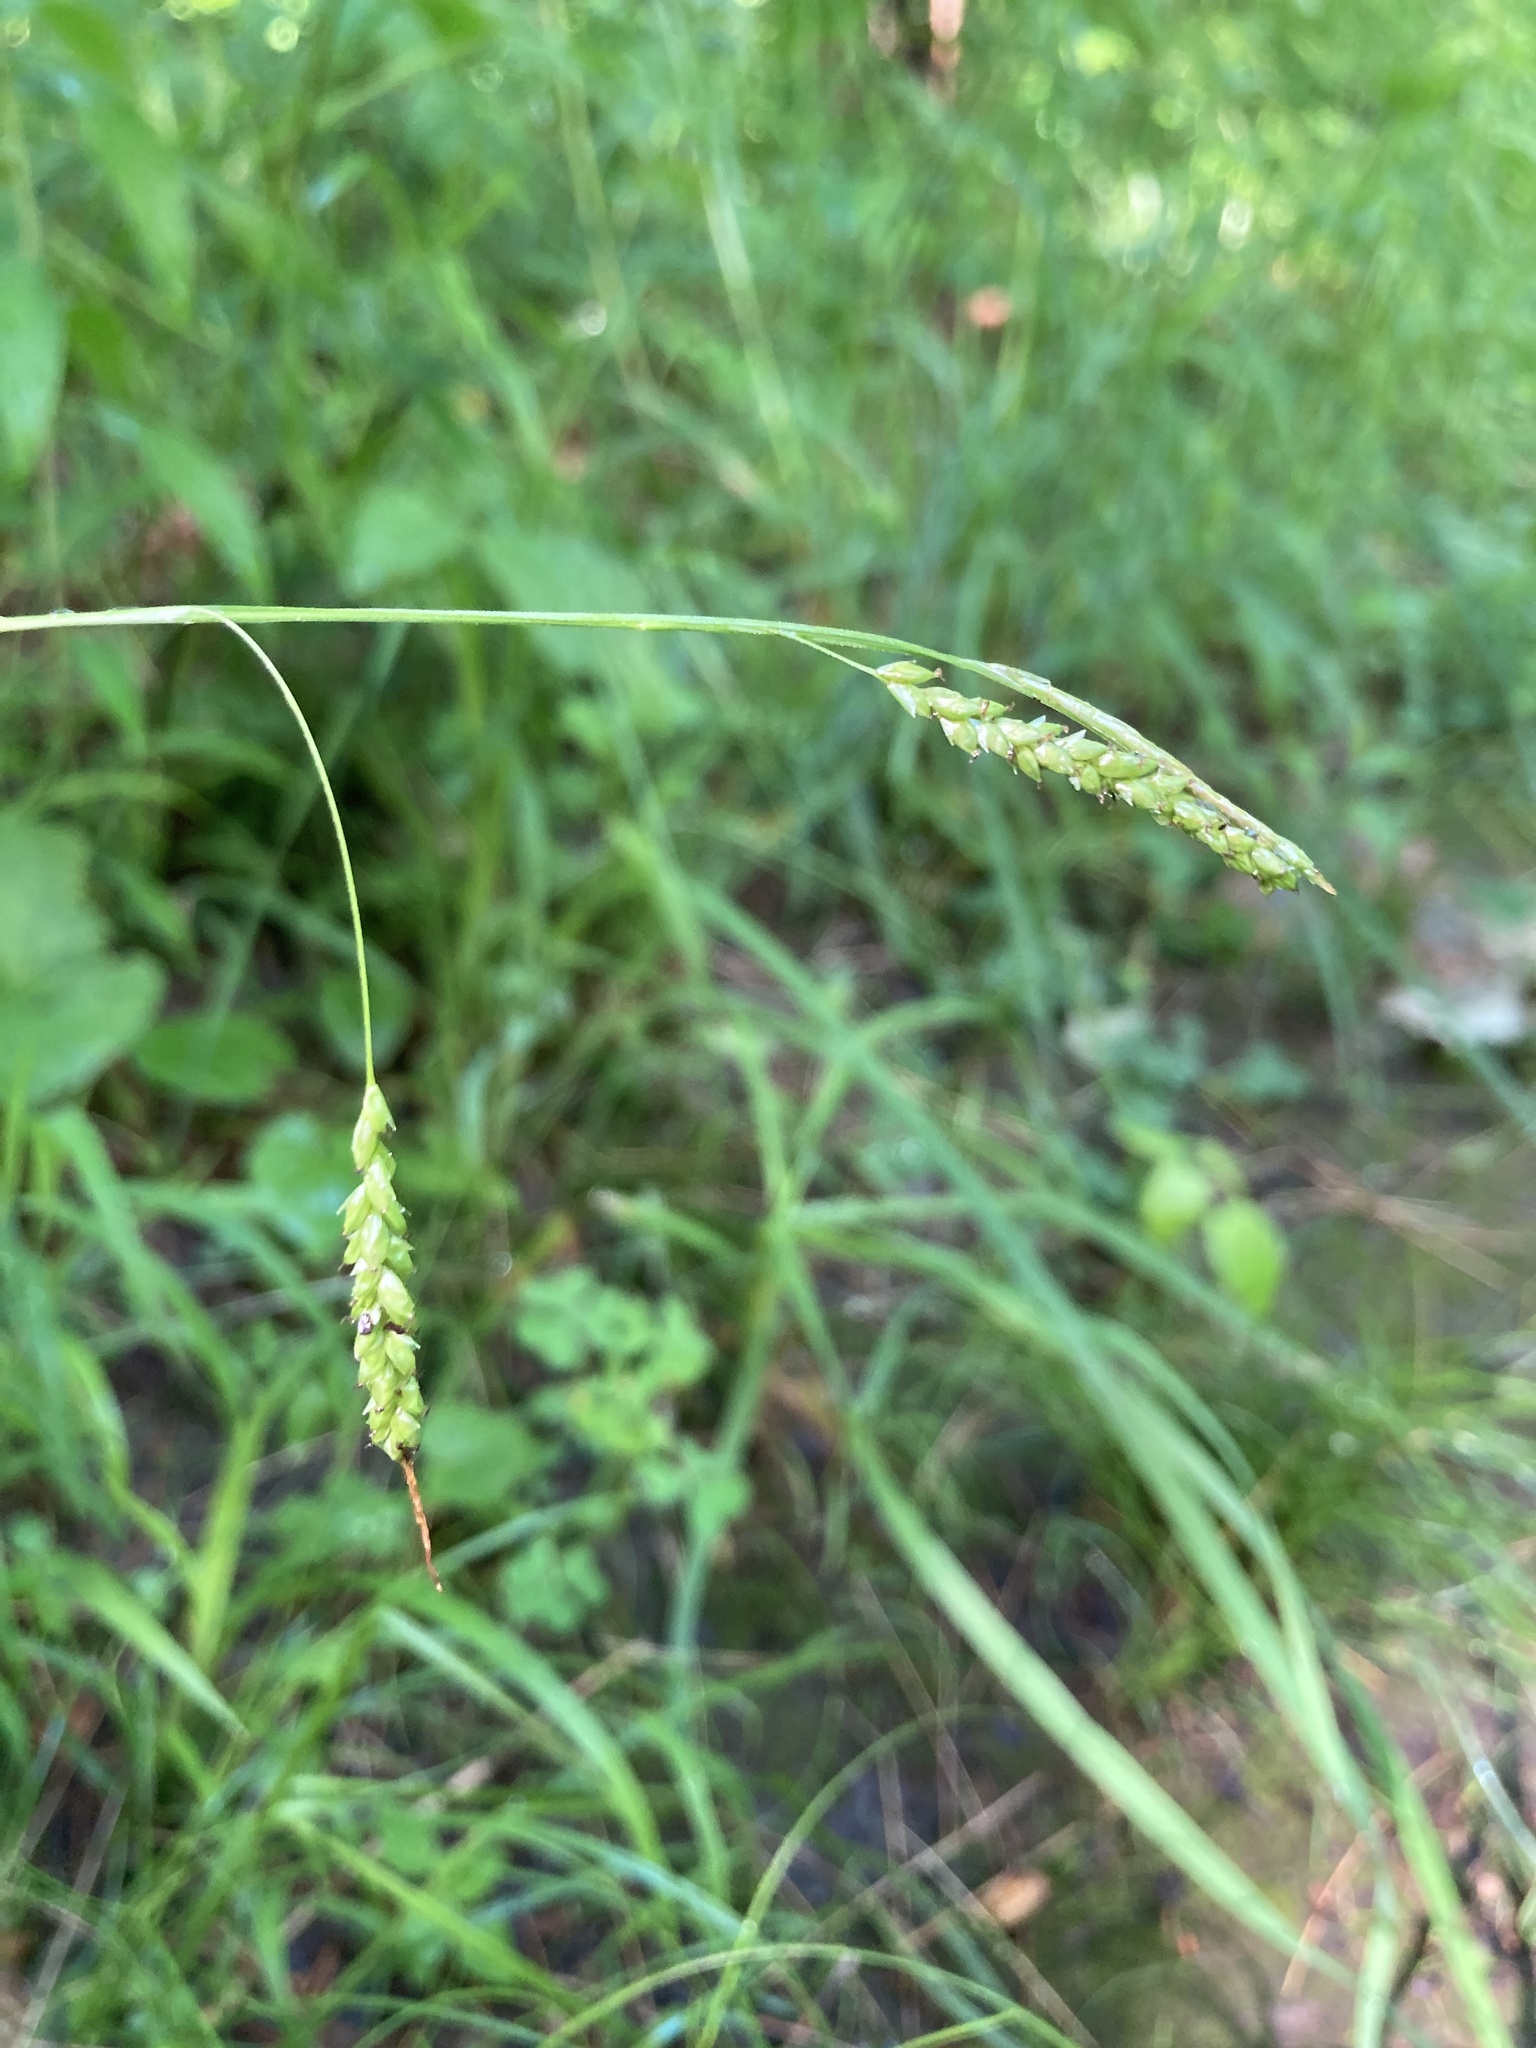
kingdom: Plantae
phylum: Tracheophyta
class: Liliopsida
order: Poales
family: Cyperaceae
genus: Carex
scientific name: Carex gracillima
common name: Graceful sedge
